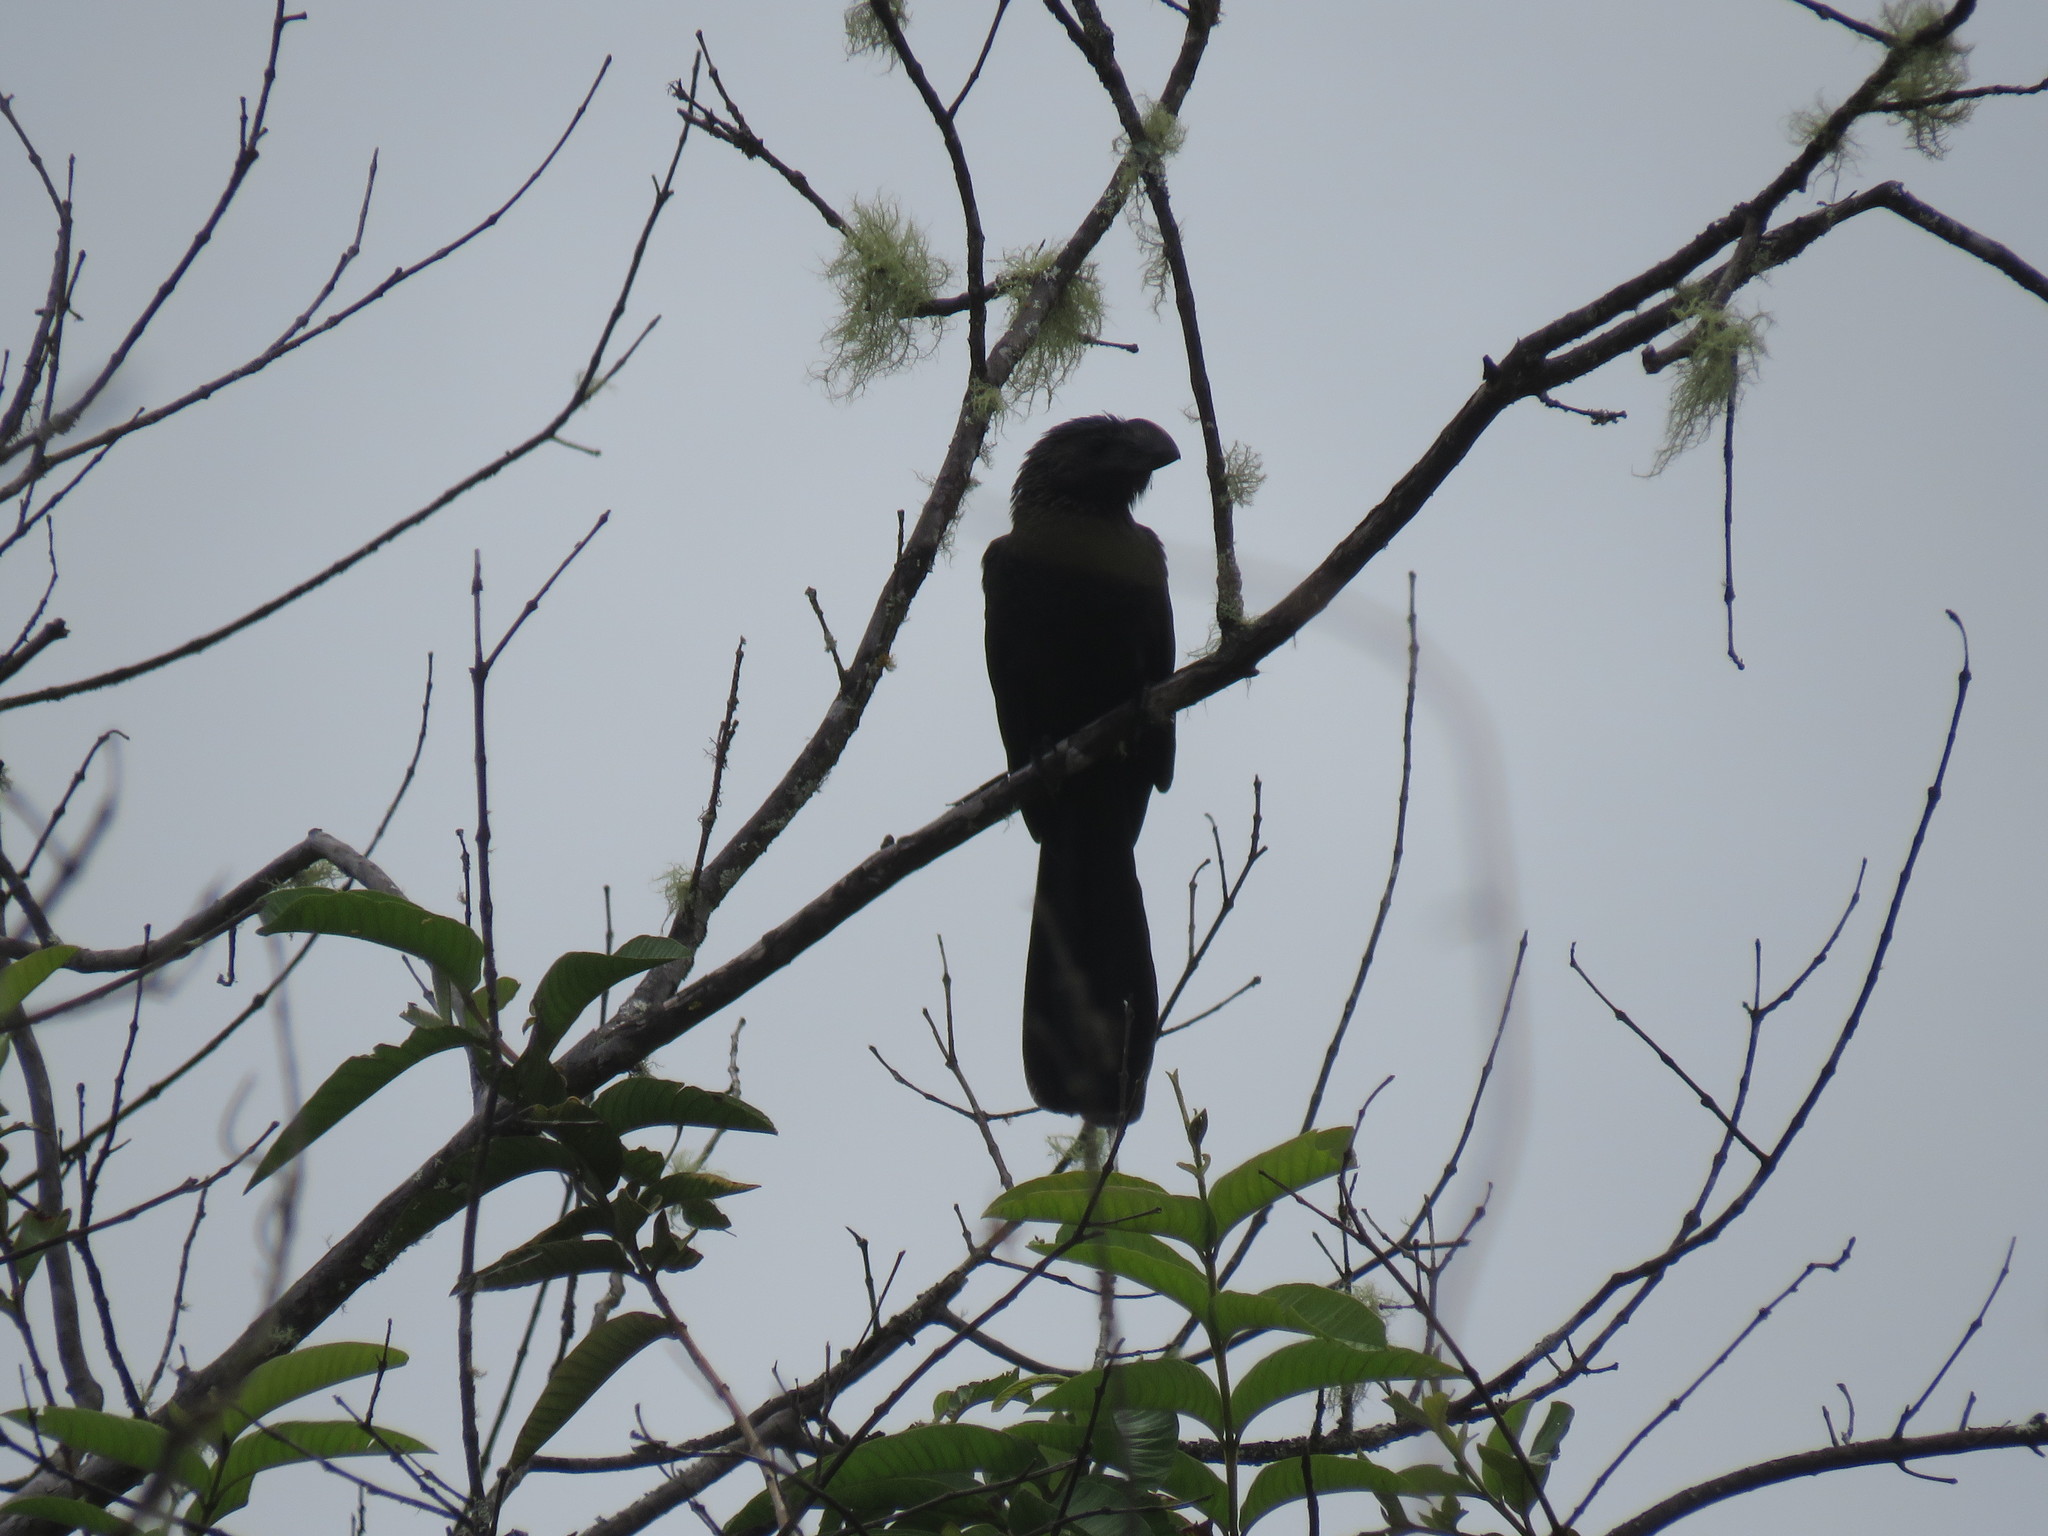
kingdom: Animalia
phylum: Chordata
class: Aves
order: Cuculiformes
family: Cuculidae
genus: Crotophaga
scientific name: Crotophaga ani
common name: Smooth-billed ani
